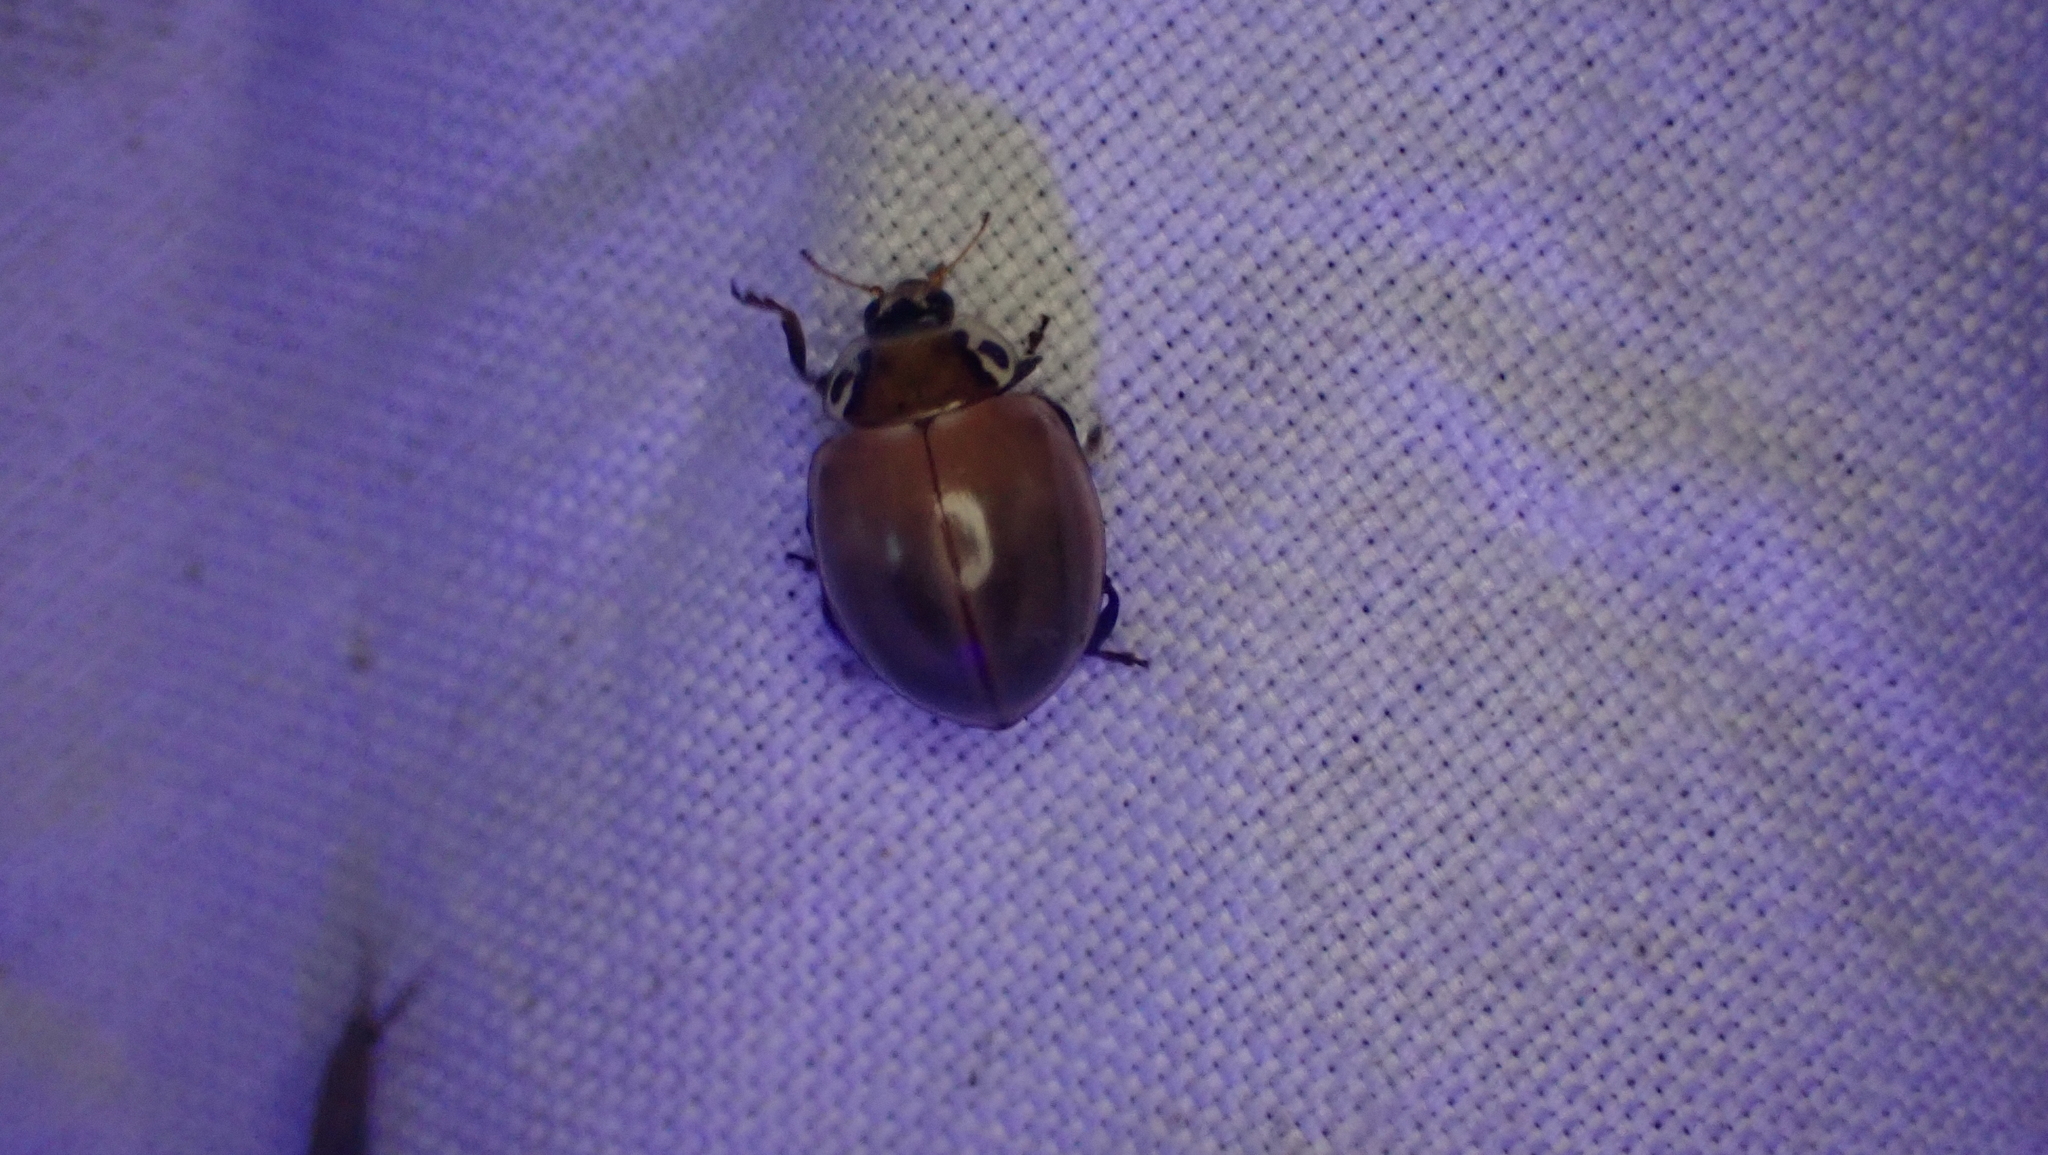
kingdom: Animalia
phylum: Arthropoda
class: Insecta
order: Coleoptera
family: Coccinellidae
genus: Myzia
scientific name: Myzia pullata
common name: Streaked lady beetle
